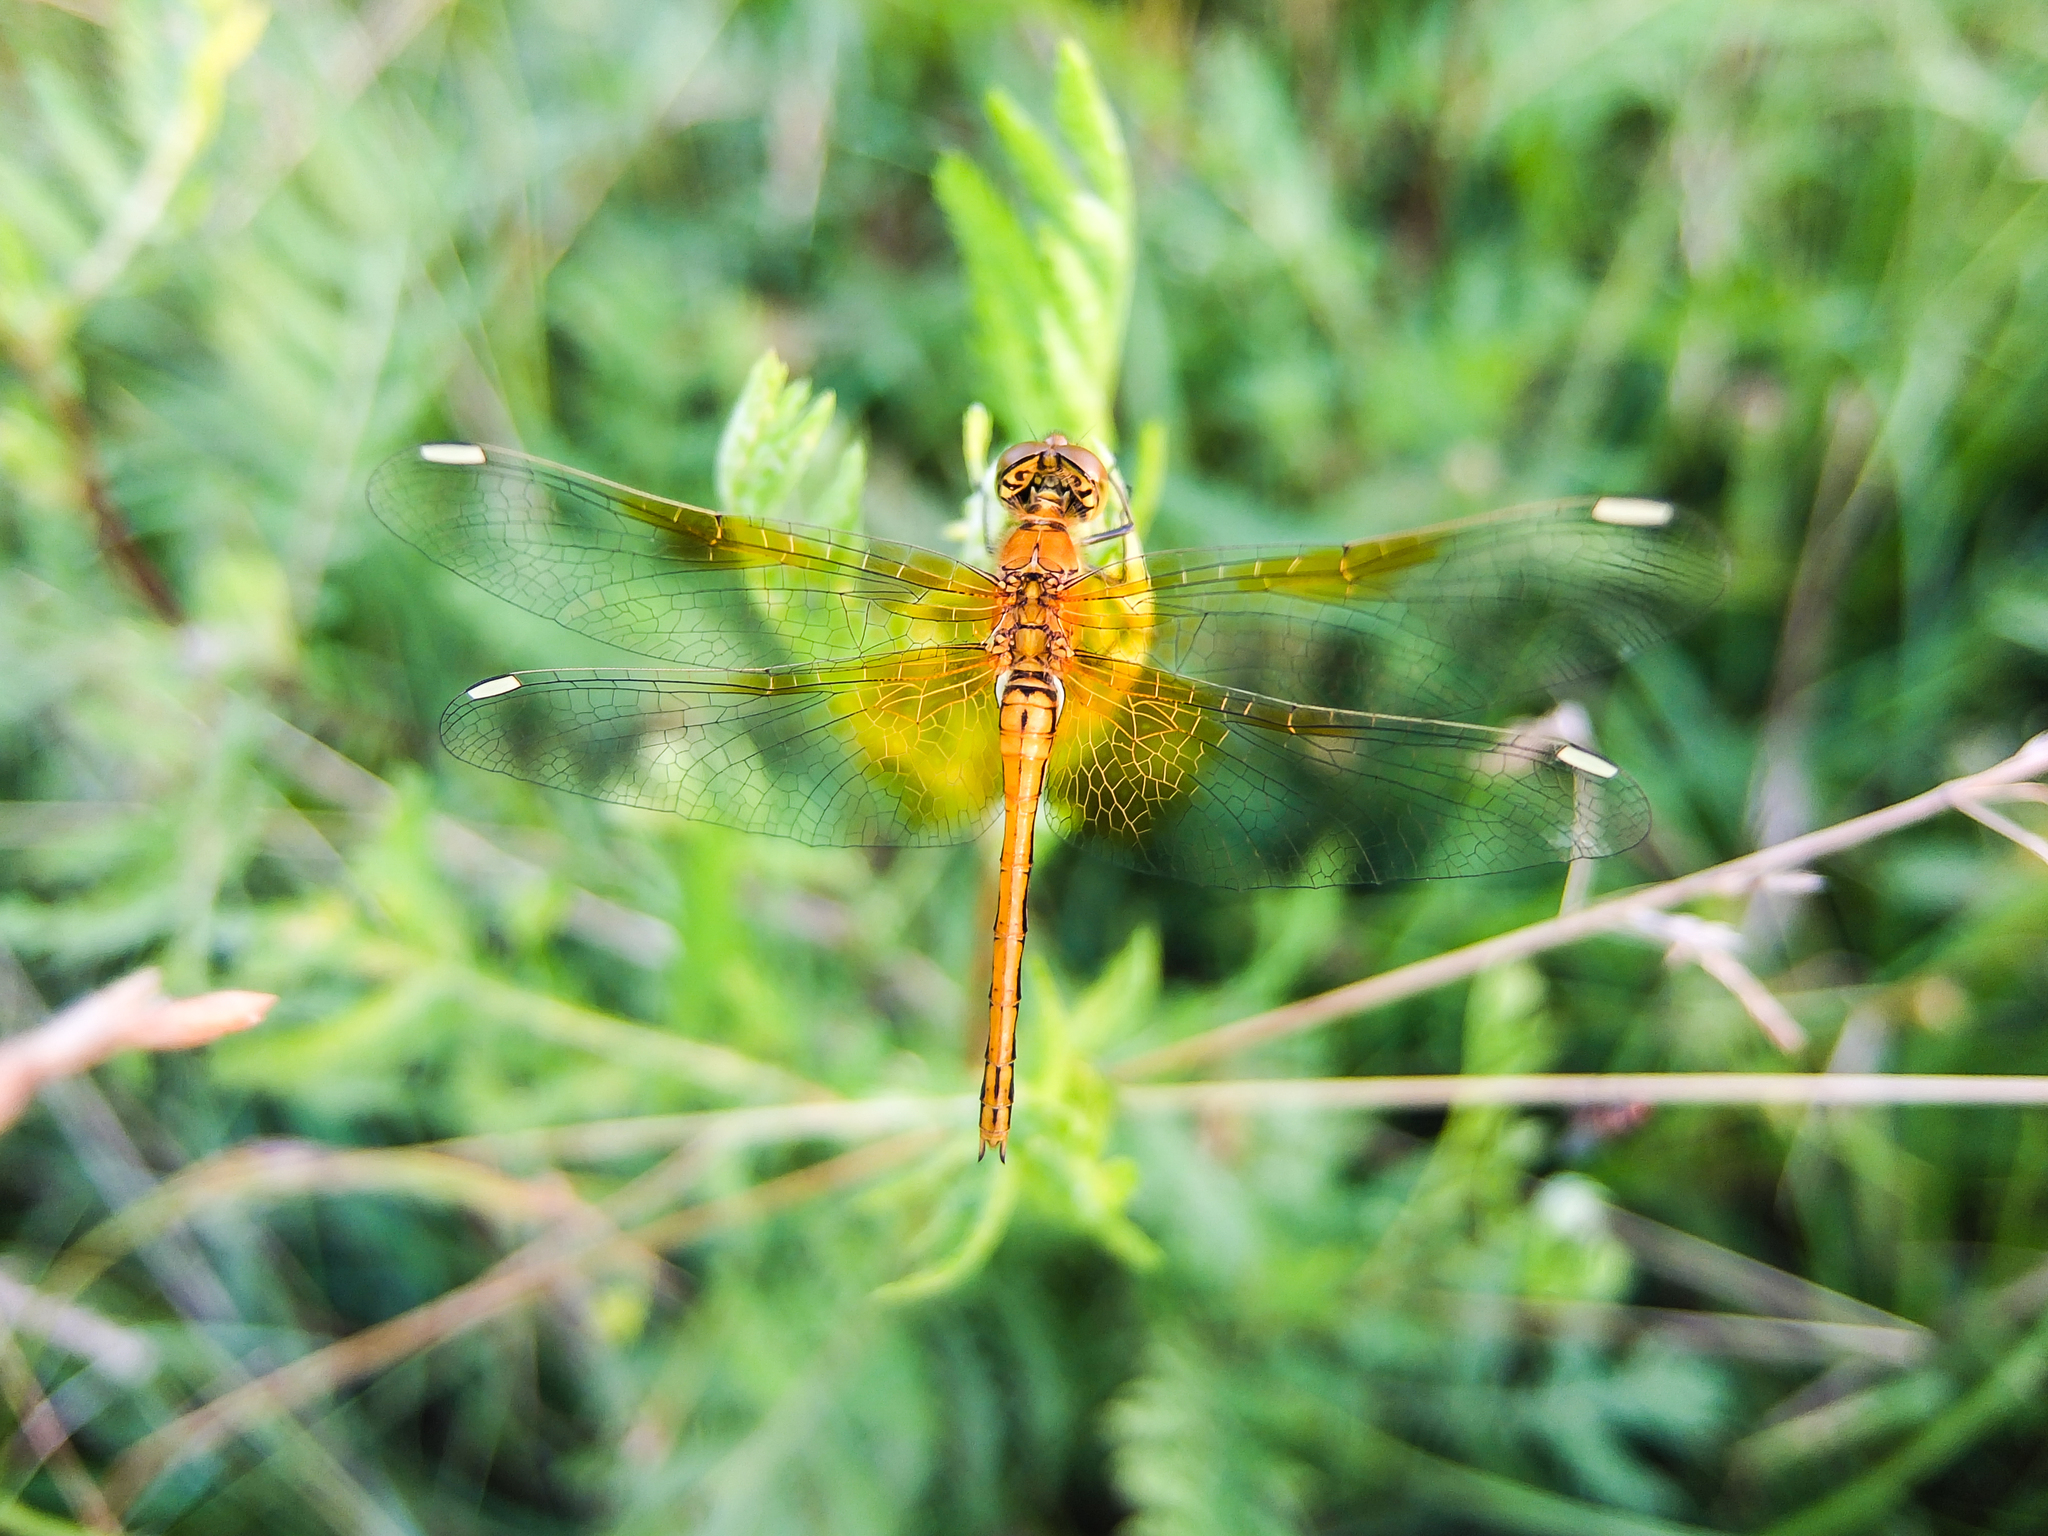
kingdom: Animalia
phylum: Arthropoda
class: Insecta
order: Odonata
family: Libellulidae
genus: Sympetrum
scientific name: Sympetrum flaveolum
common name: Yellow-winged darter
